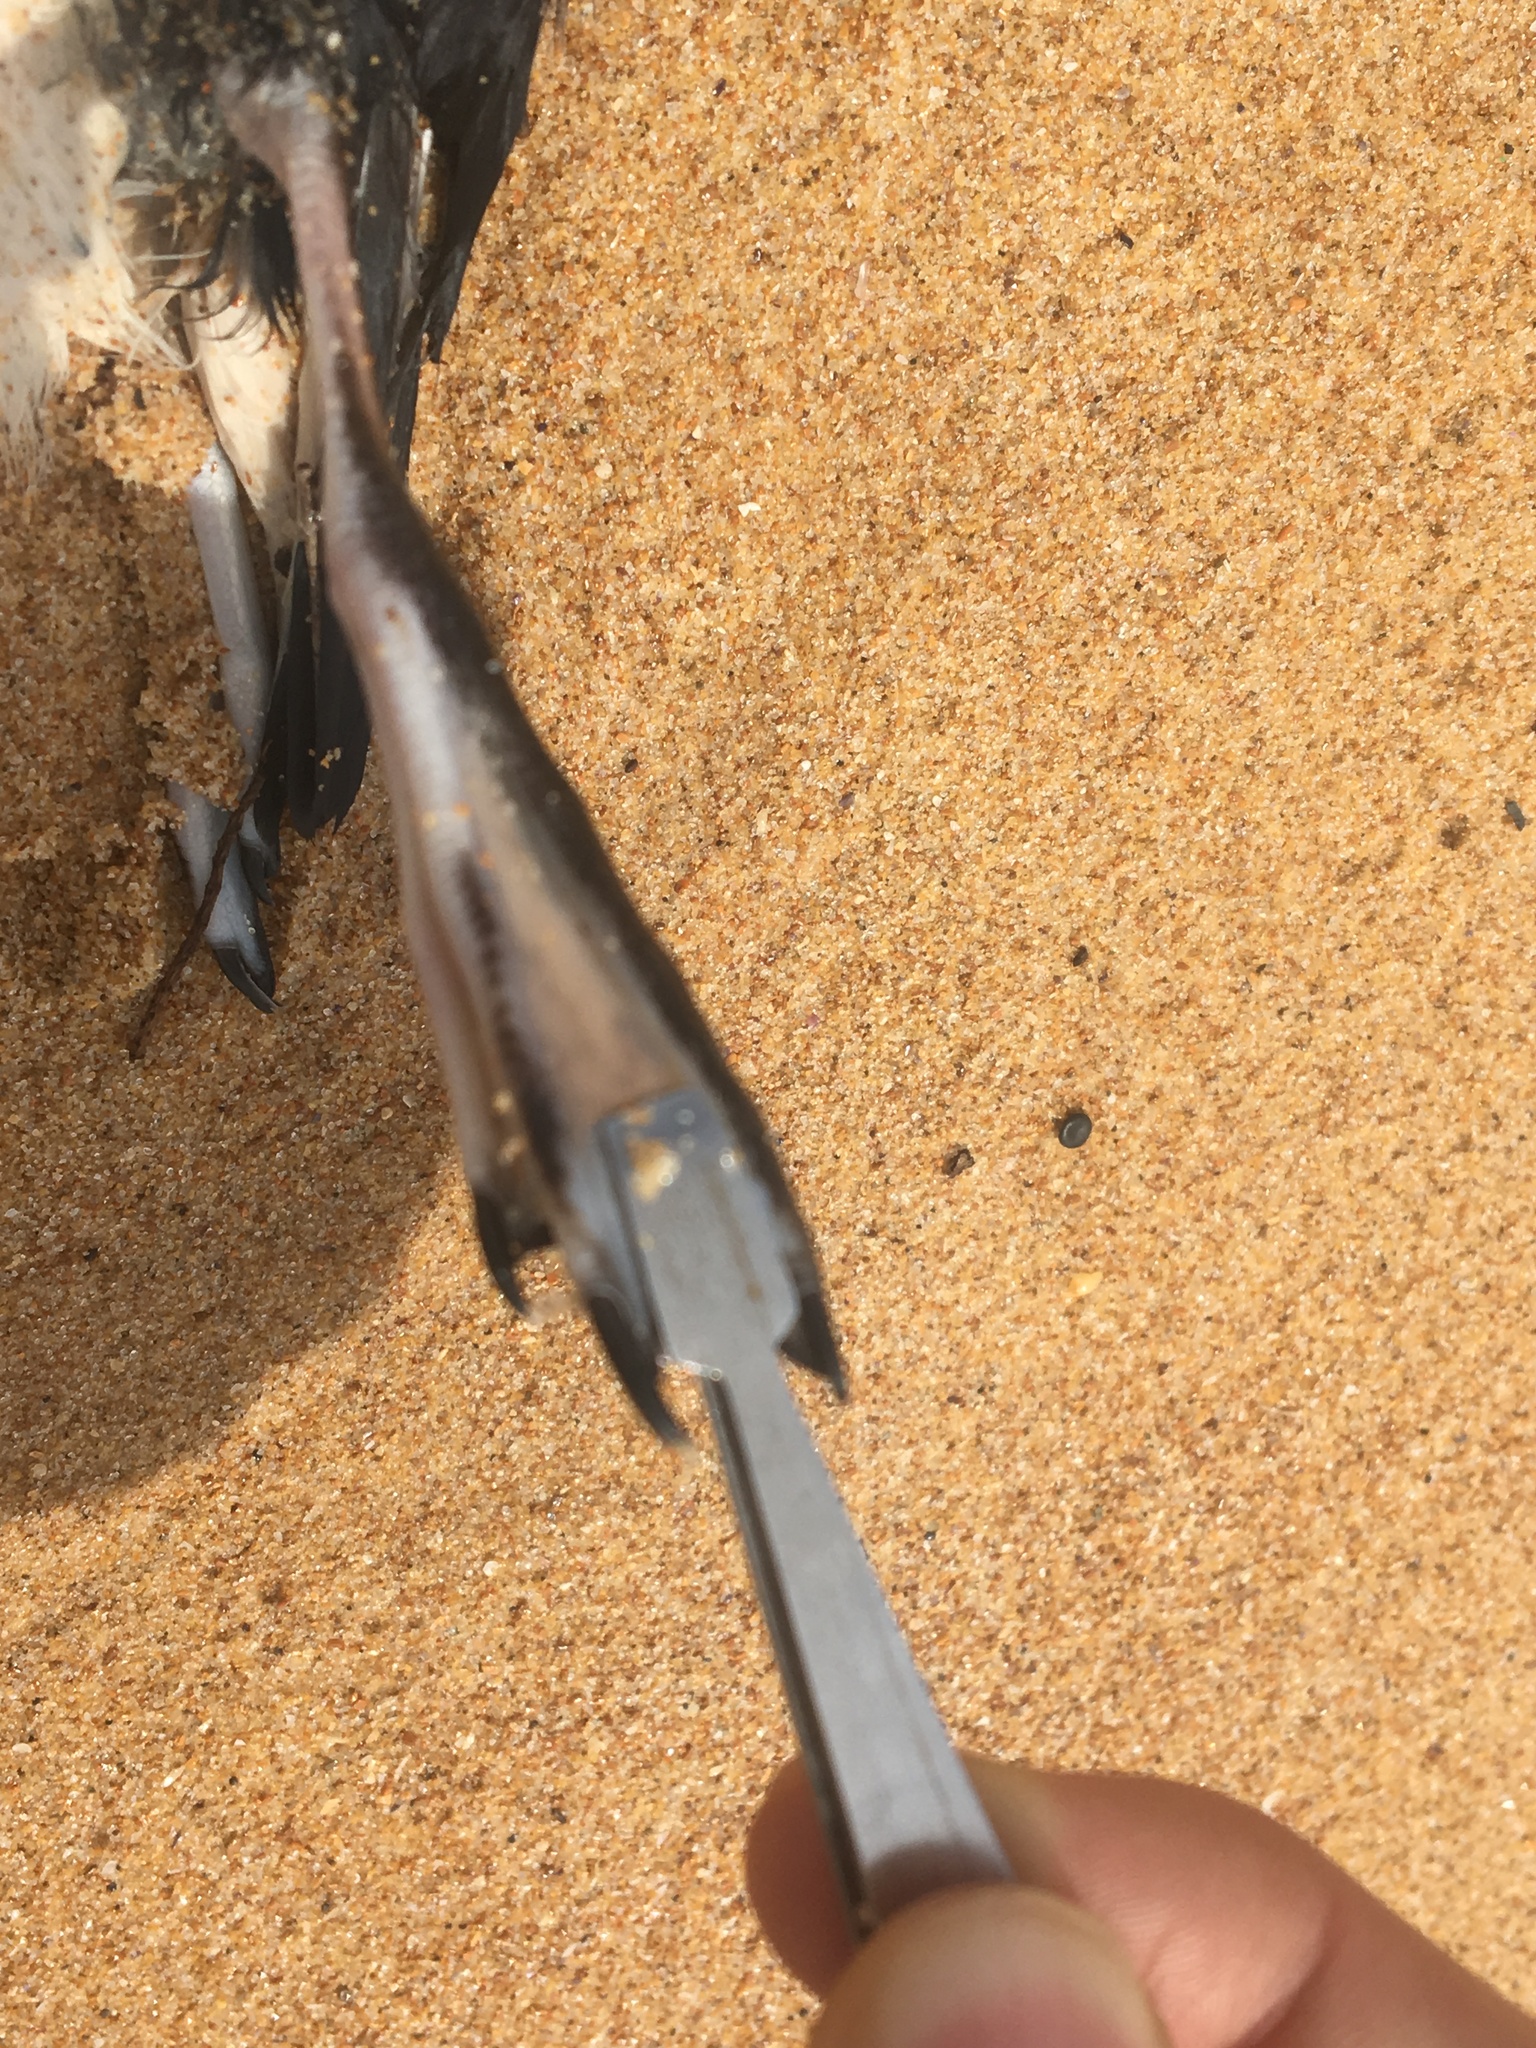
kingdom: Animalia
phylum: Chordata
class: Aves
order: Procellariiformes
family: Procellariidae
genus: Puffinus
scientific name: Puffinus gavia
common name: Fluttering shearwater
